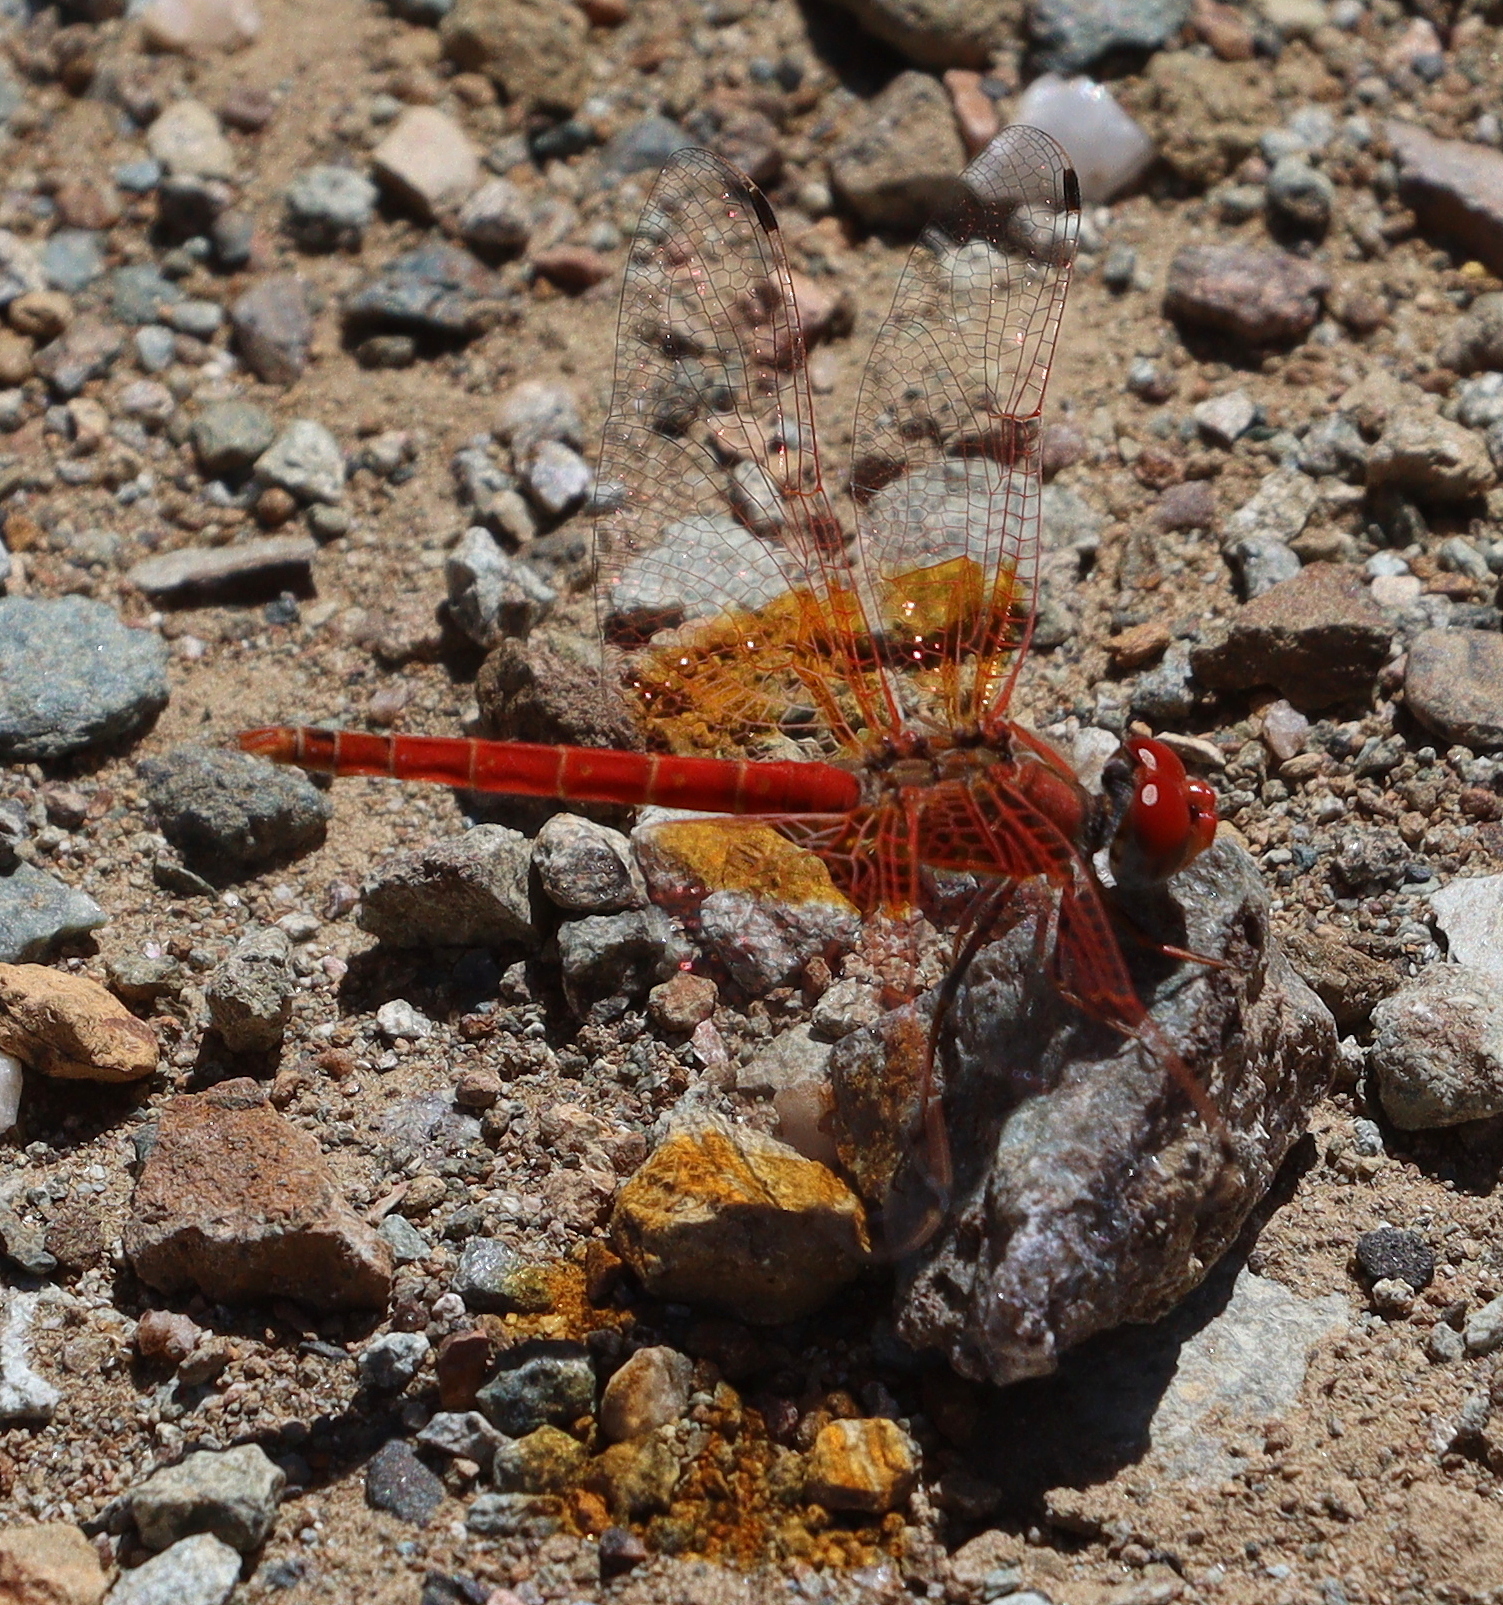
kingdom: Animalia
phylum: Arthropoda
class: Insecta
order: Odonata
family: Libellulidae
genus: Trithemis
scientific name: Trithemis kirbyi
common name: Kirby's dropwing
